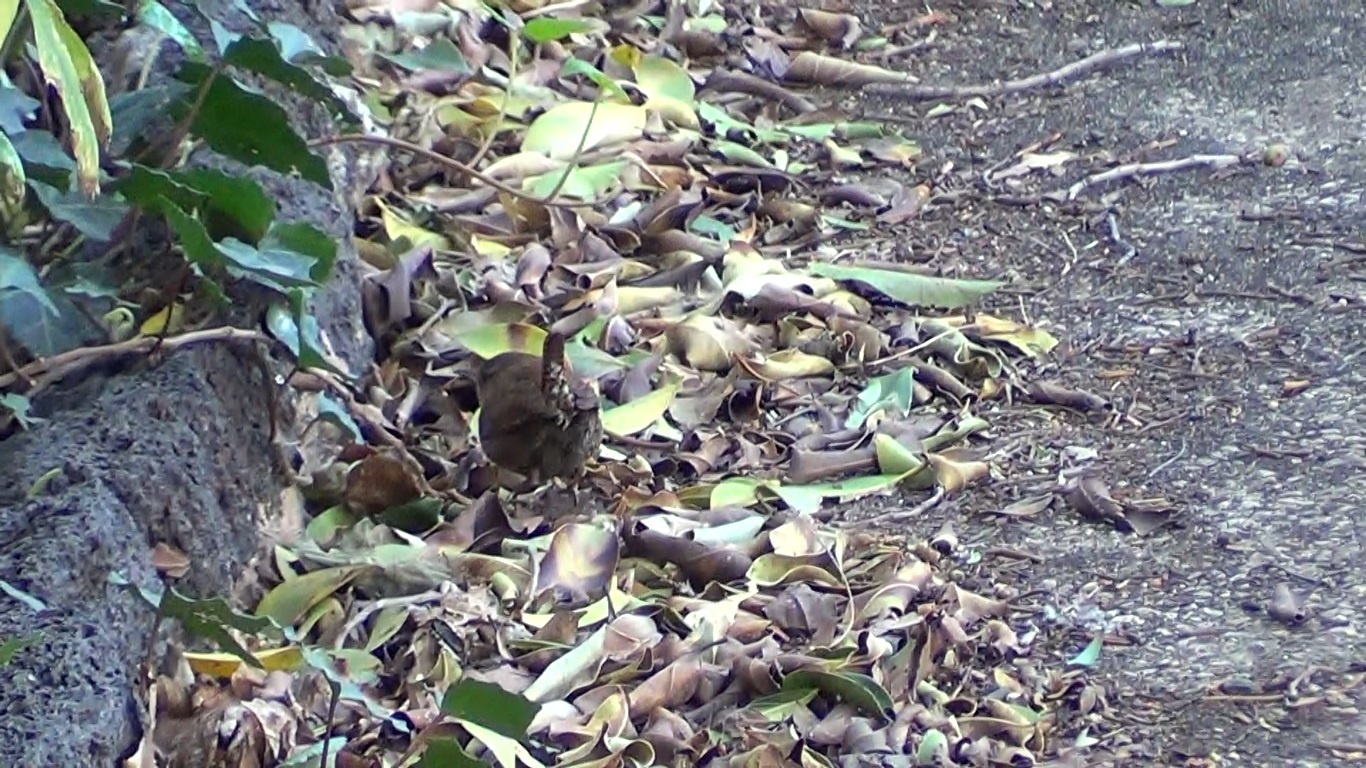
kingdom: Animalia
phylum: Chordata
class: Aves
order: Passeriformes
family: Troglodytidae
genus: Troglodytes
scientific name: Troglodytes troglodytes
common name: Eurasian wren
